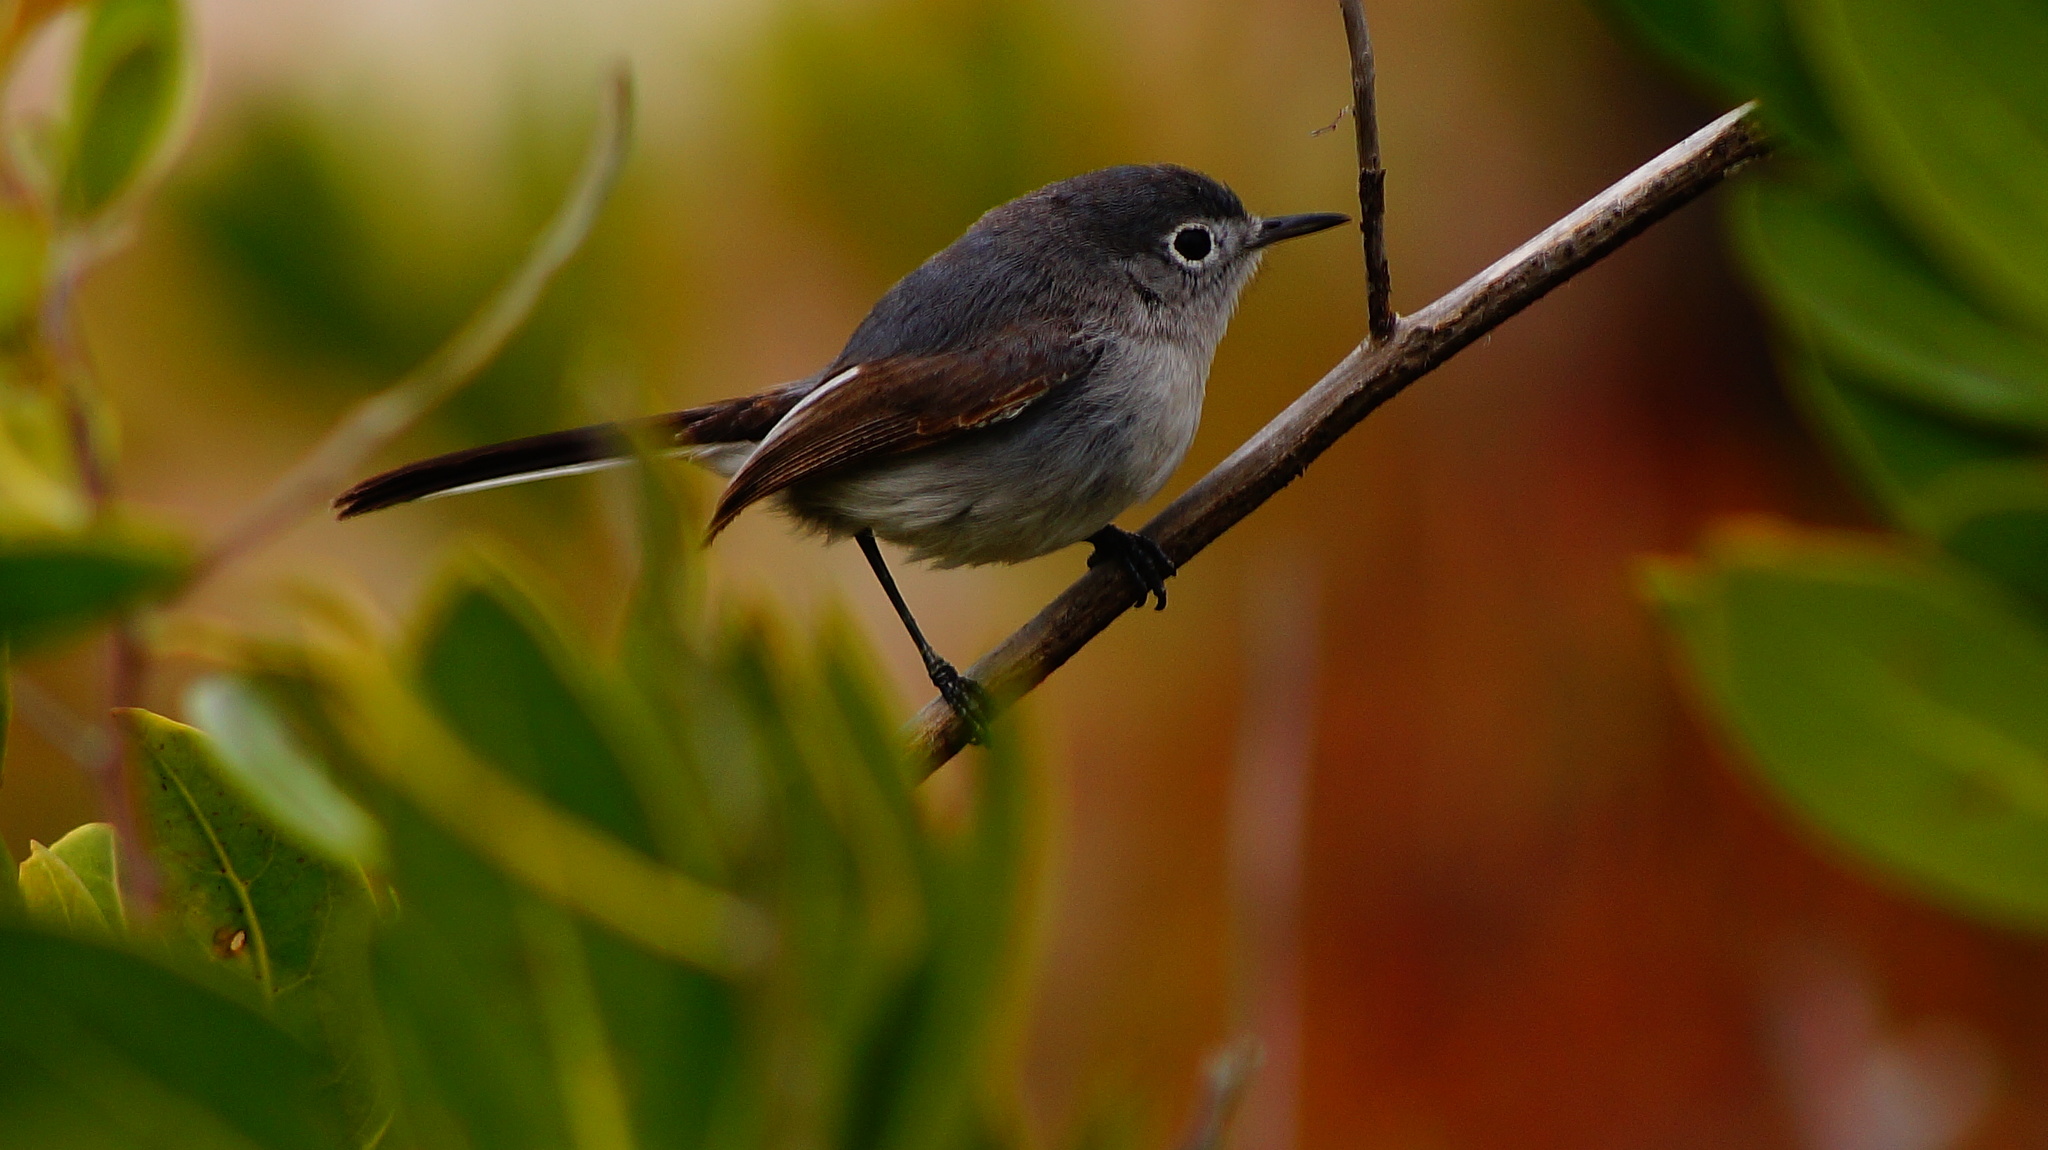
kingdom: Animalia
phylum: Chordata
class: Aves
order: Passeriformes
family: Polioptilidae
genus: Polioptila
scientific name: Polioptila caerulea
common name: Blue-gray gnatcatcher
